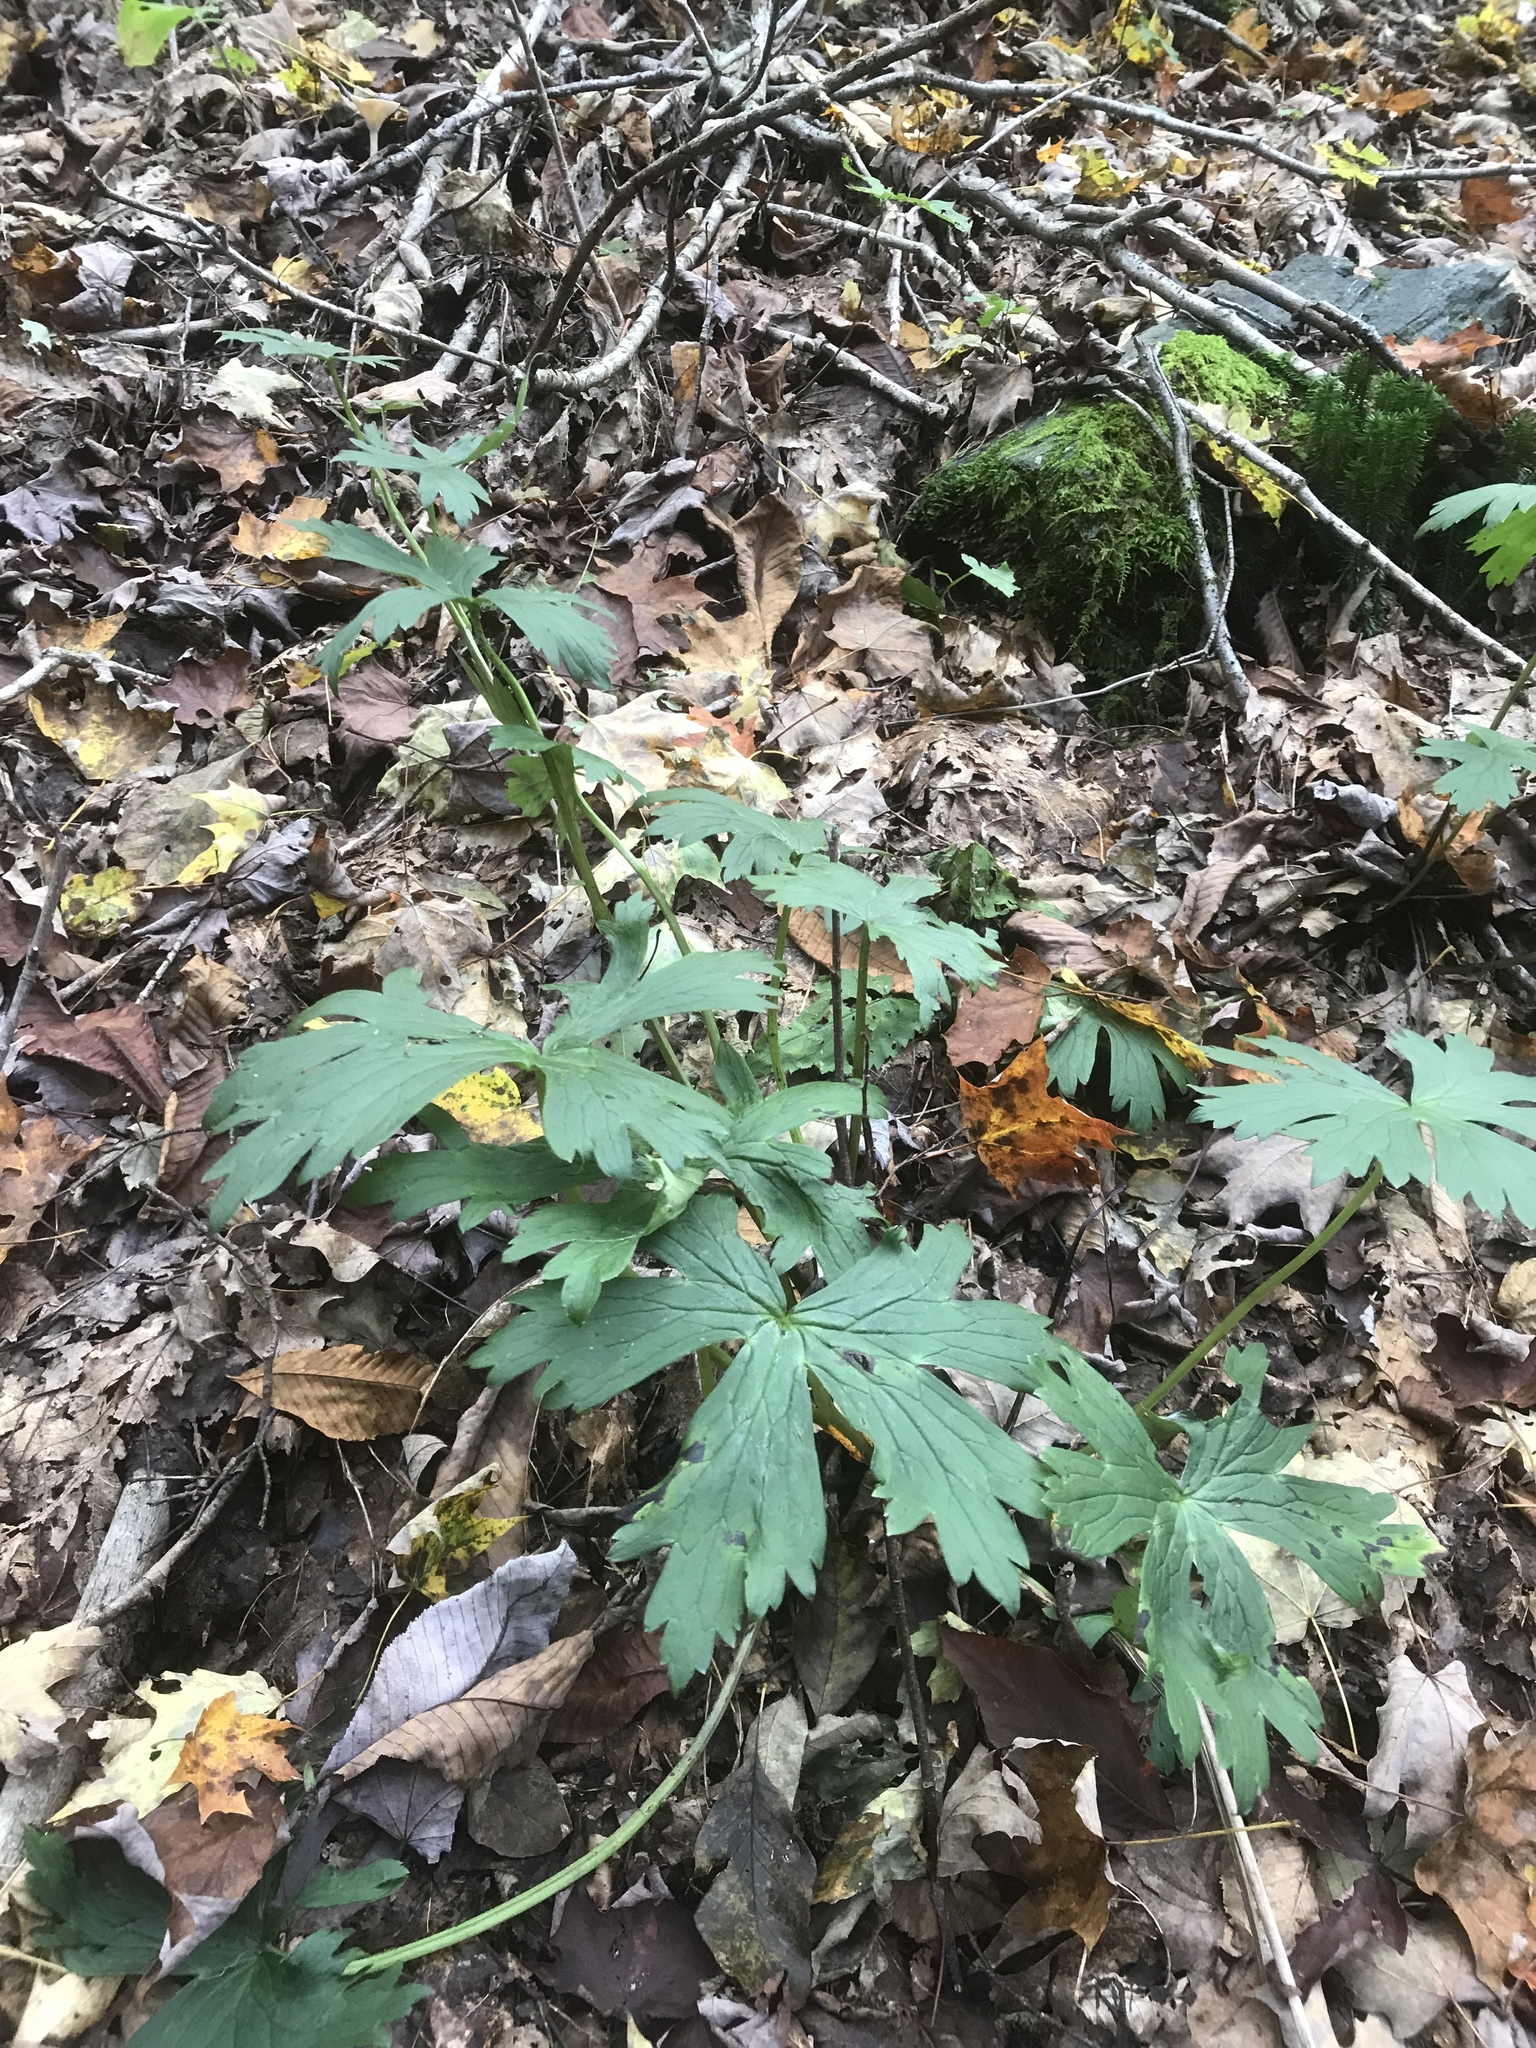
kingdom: Plantae
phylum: Tracheophyta
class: Magnoliopsida
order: Ranunculales
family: Ranunculaceae
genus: Aconitum
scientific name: Aconitum reclinatum
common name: Trailing wolfsbane
